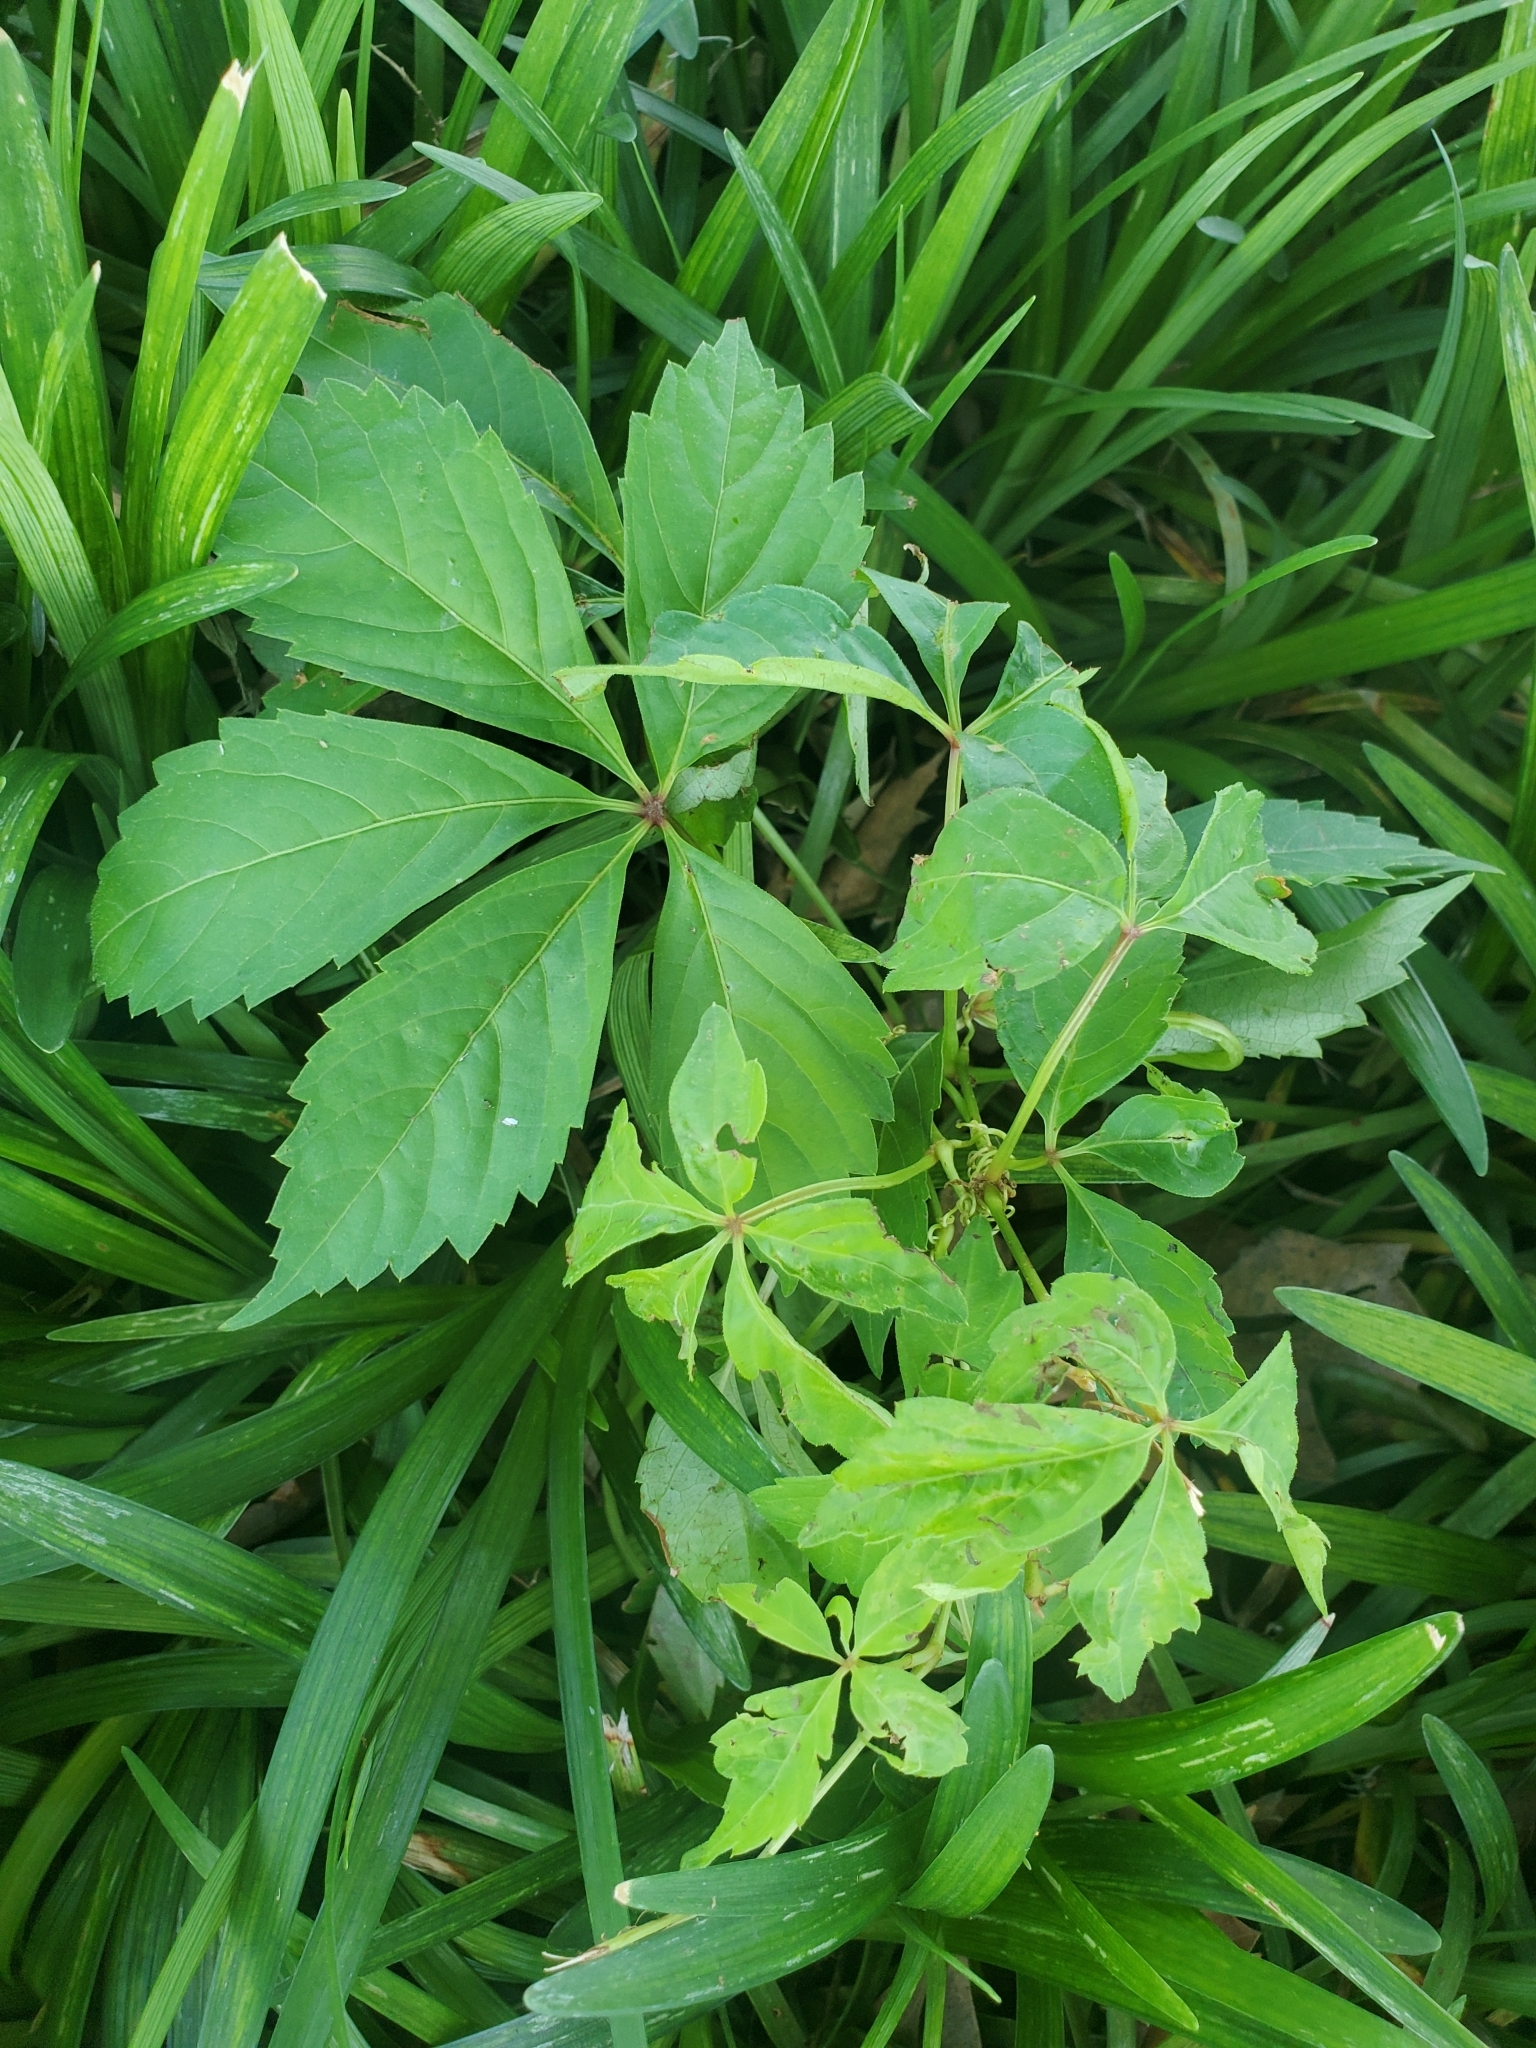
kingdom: Plantae
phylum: Tracheophyta
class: Magnoliopsida
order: Vitales
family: Vitaceae
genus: Parthenocissus
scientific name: Parthenocissus quinquefolia
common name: Virginia-creeper
